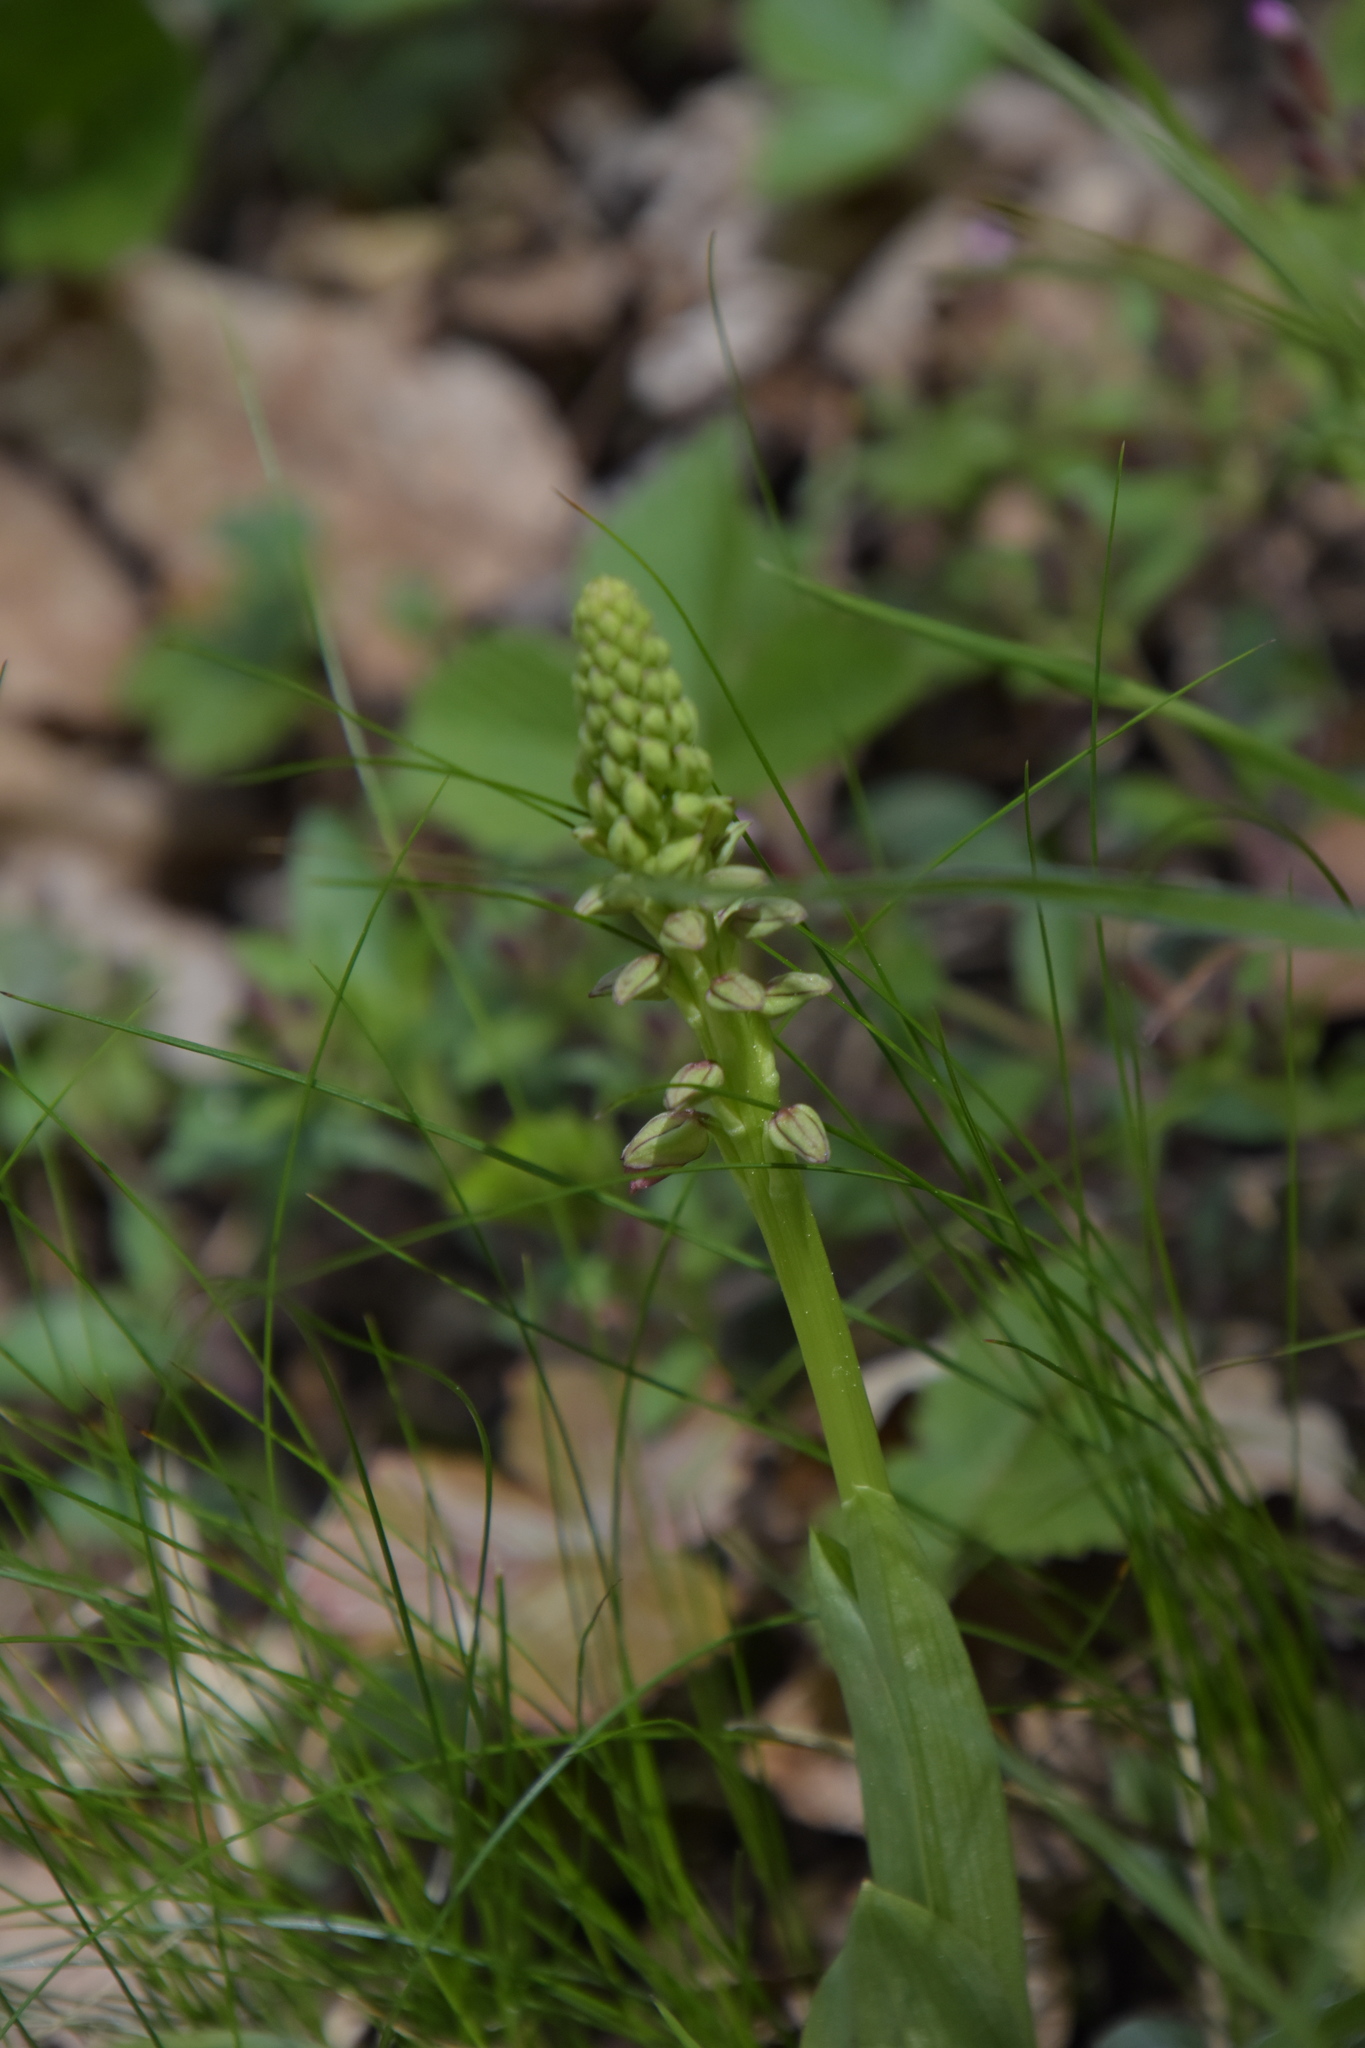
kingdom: Plantae
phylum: Tracheophyta
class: Liliopsida
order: Asparagales
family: Orchidaceae
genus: Orchis
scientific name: Orchis anthropophora
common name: Man orchid
